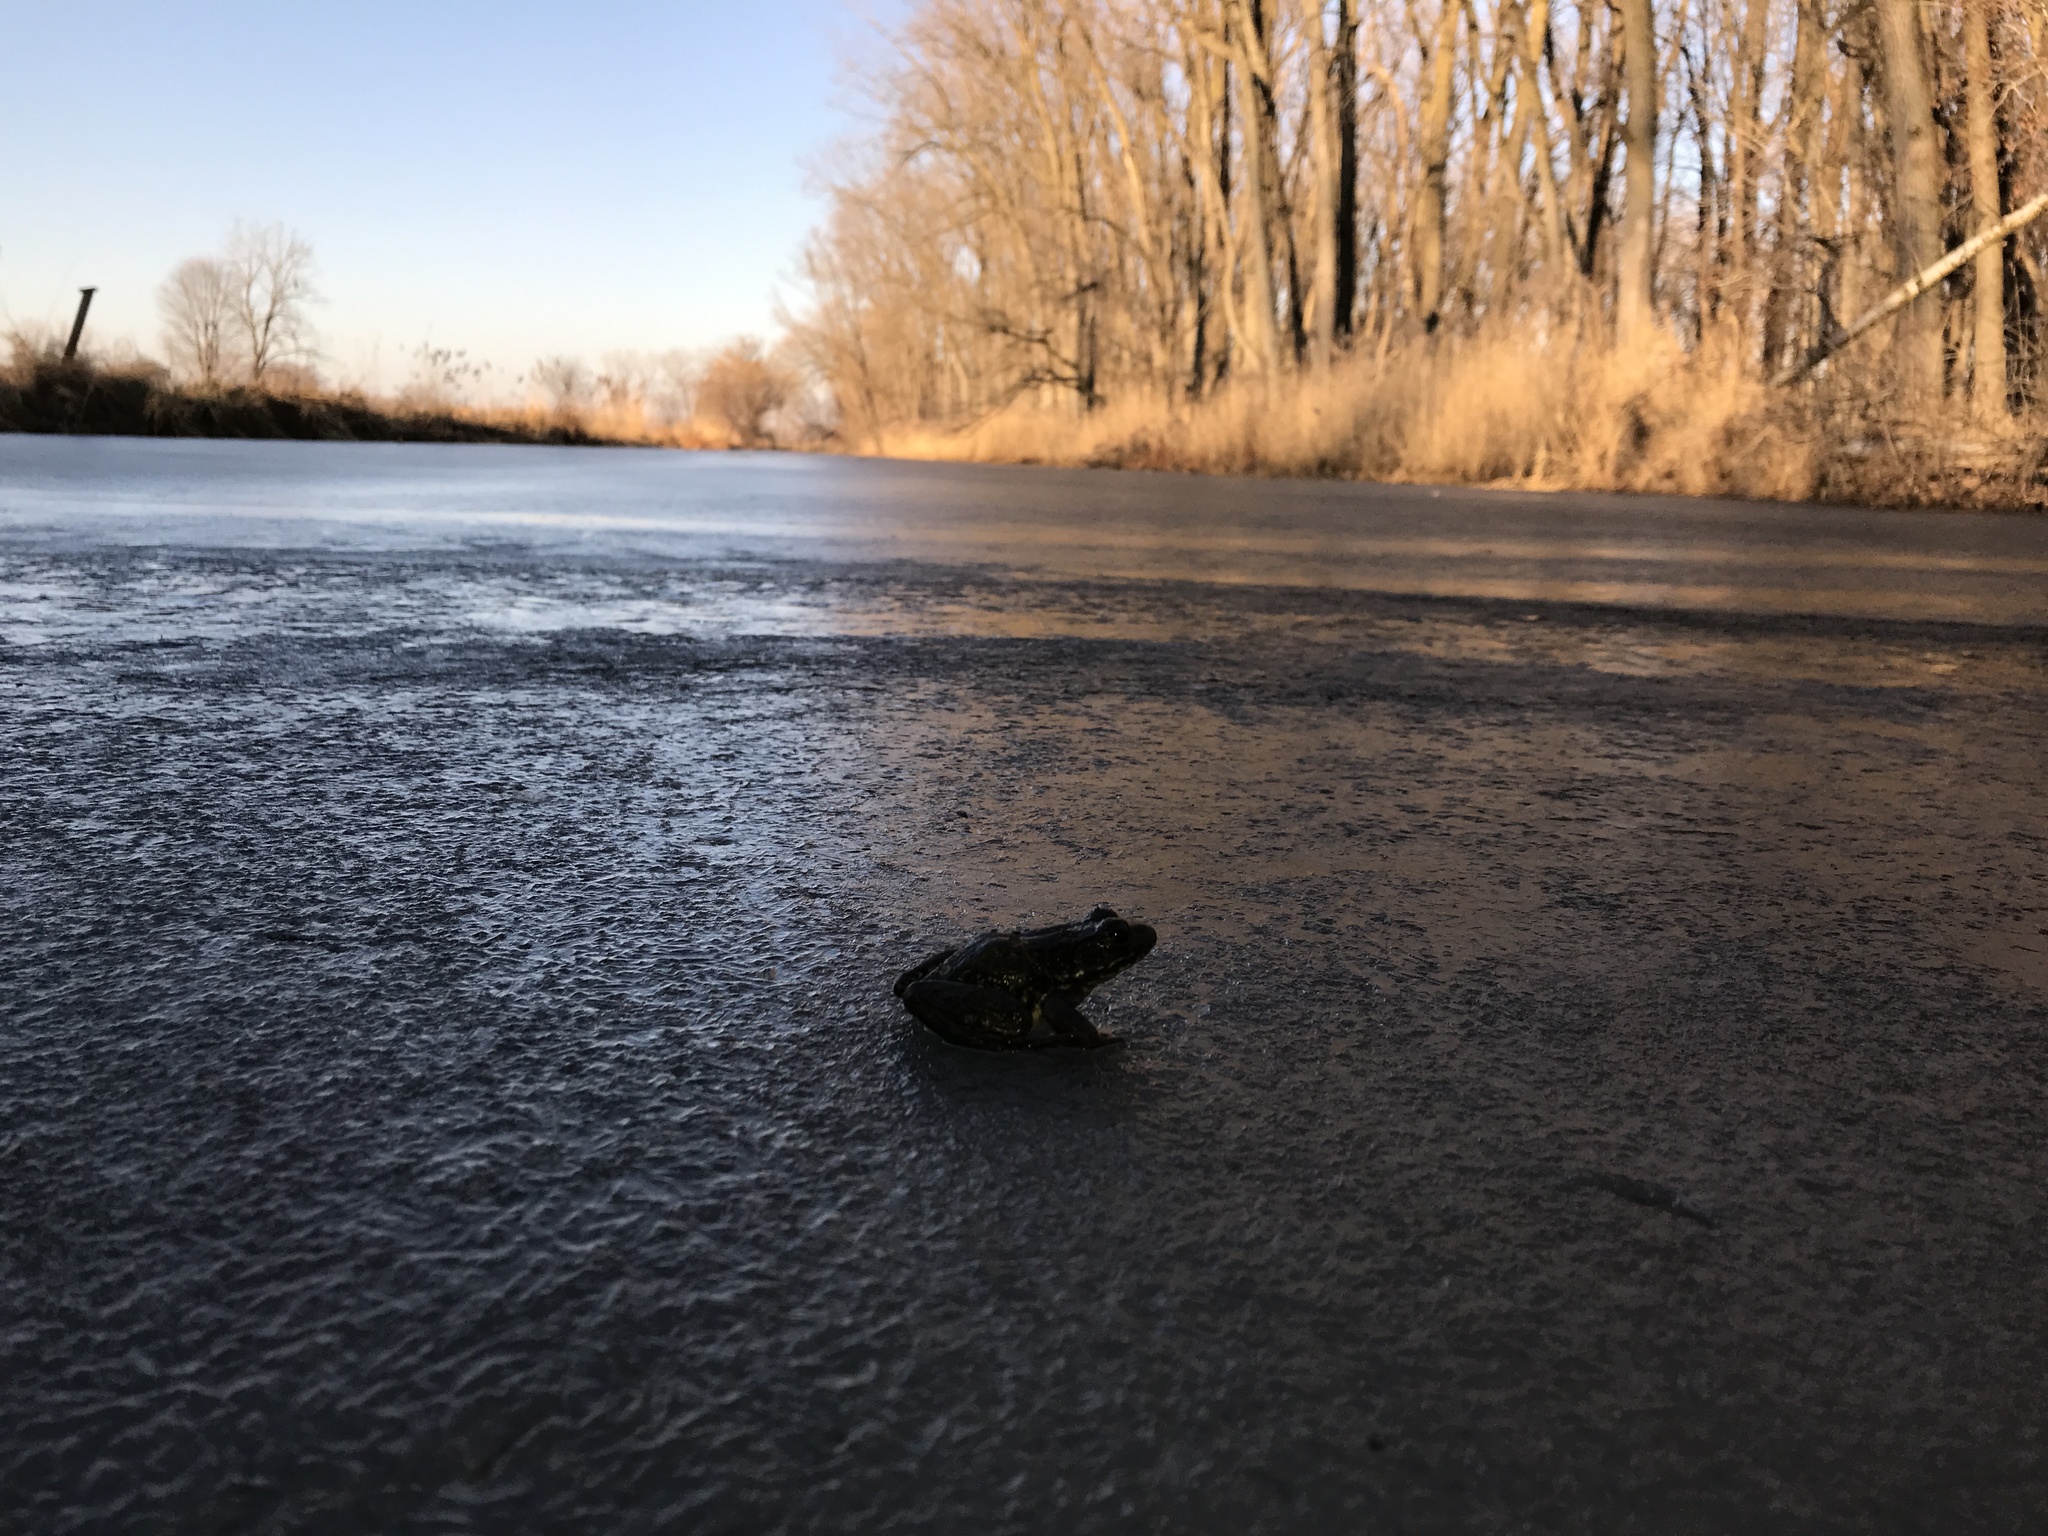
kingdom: Animalia
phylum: Chordata
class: Amphibia
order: Anura
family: Ranidae
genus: Lithobates
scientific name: Lithobates clamitans
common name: Green frog
